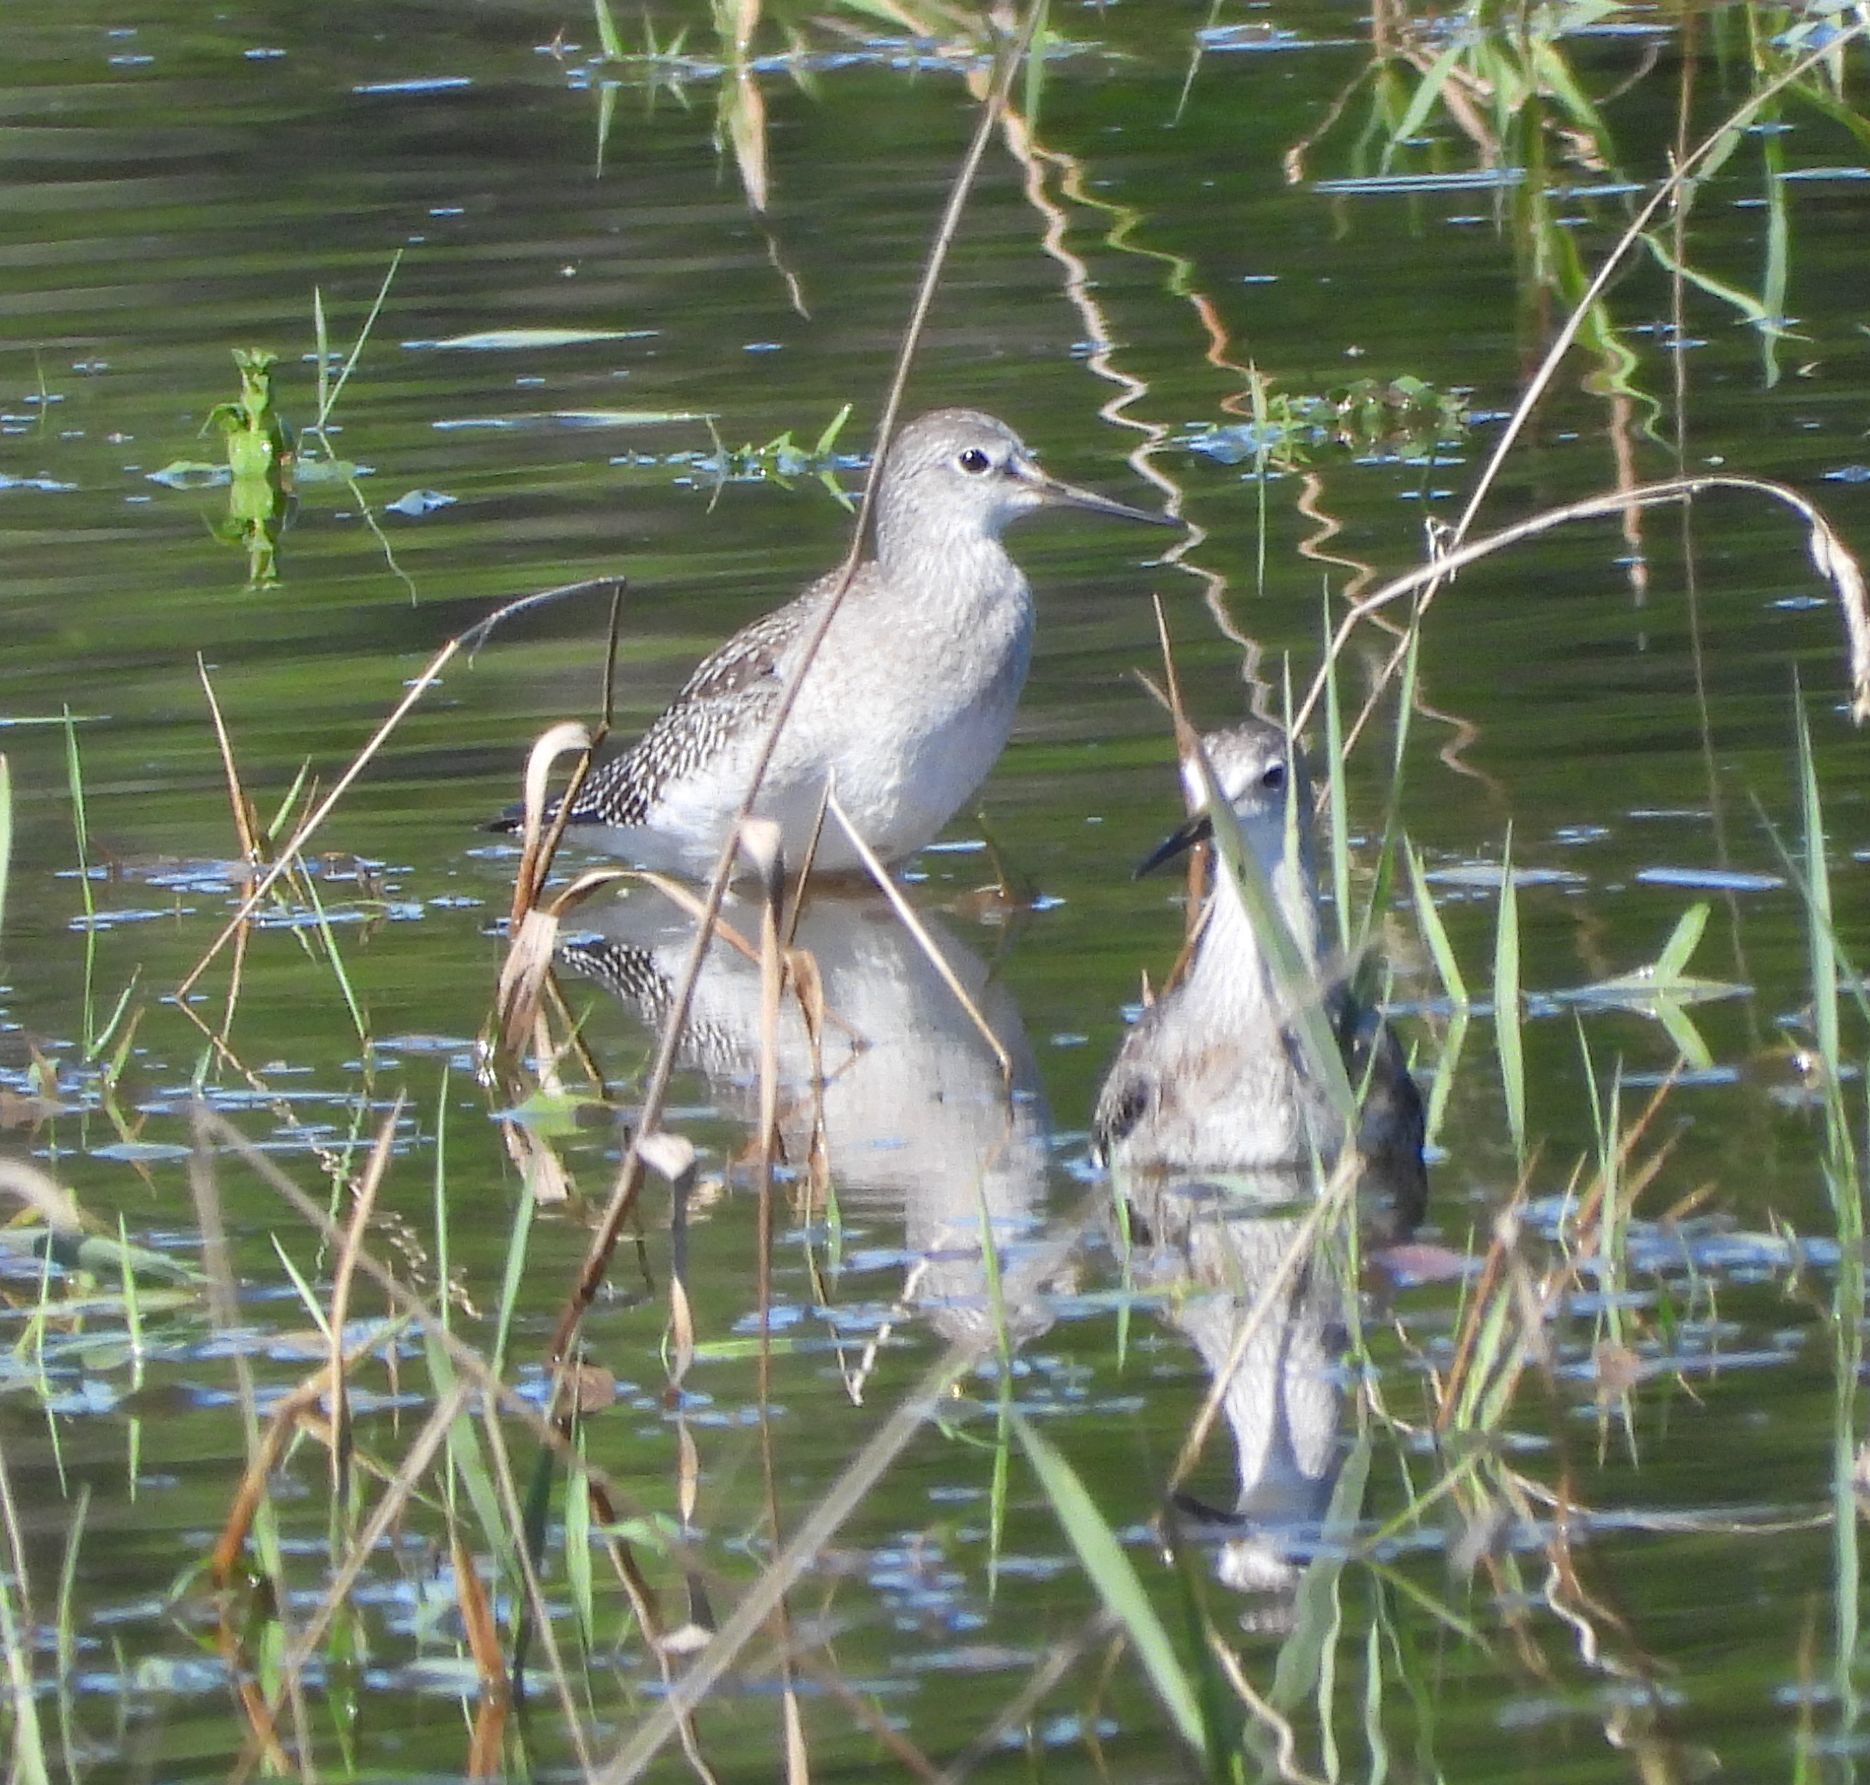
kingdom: Animalia
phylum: Chordata
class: Aves
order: Charadriiformes
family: Scolopacidae
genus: Tringa
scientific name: Tringa flavipes
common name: Lesser yellowlegs
